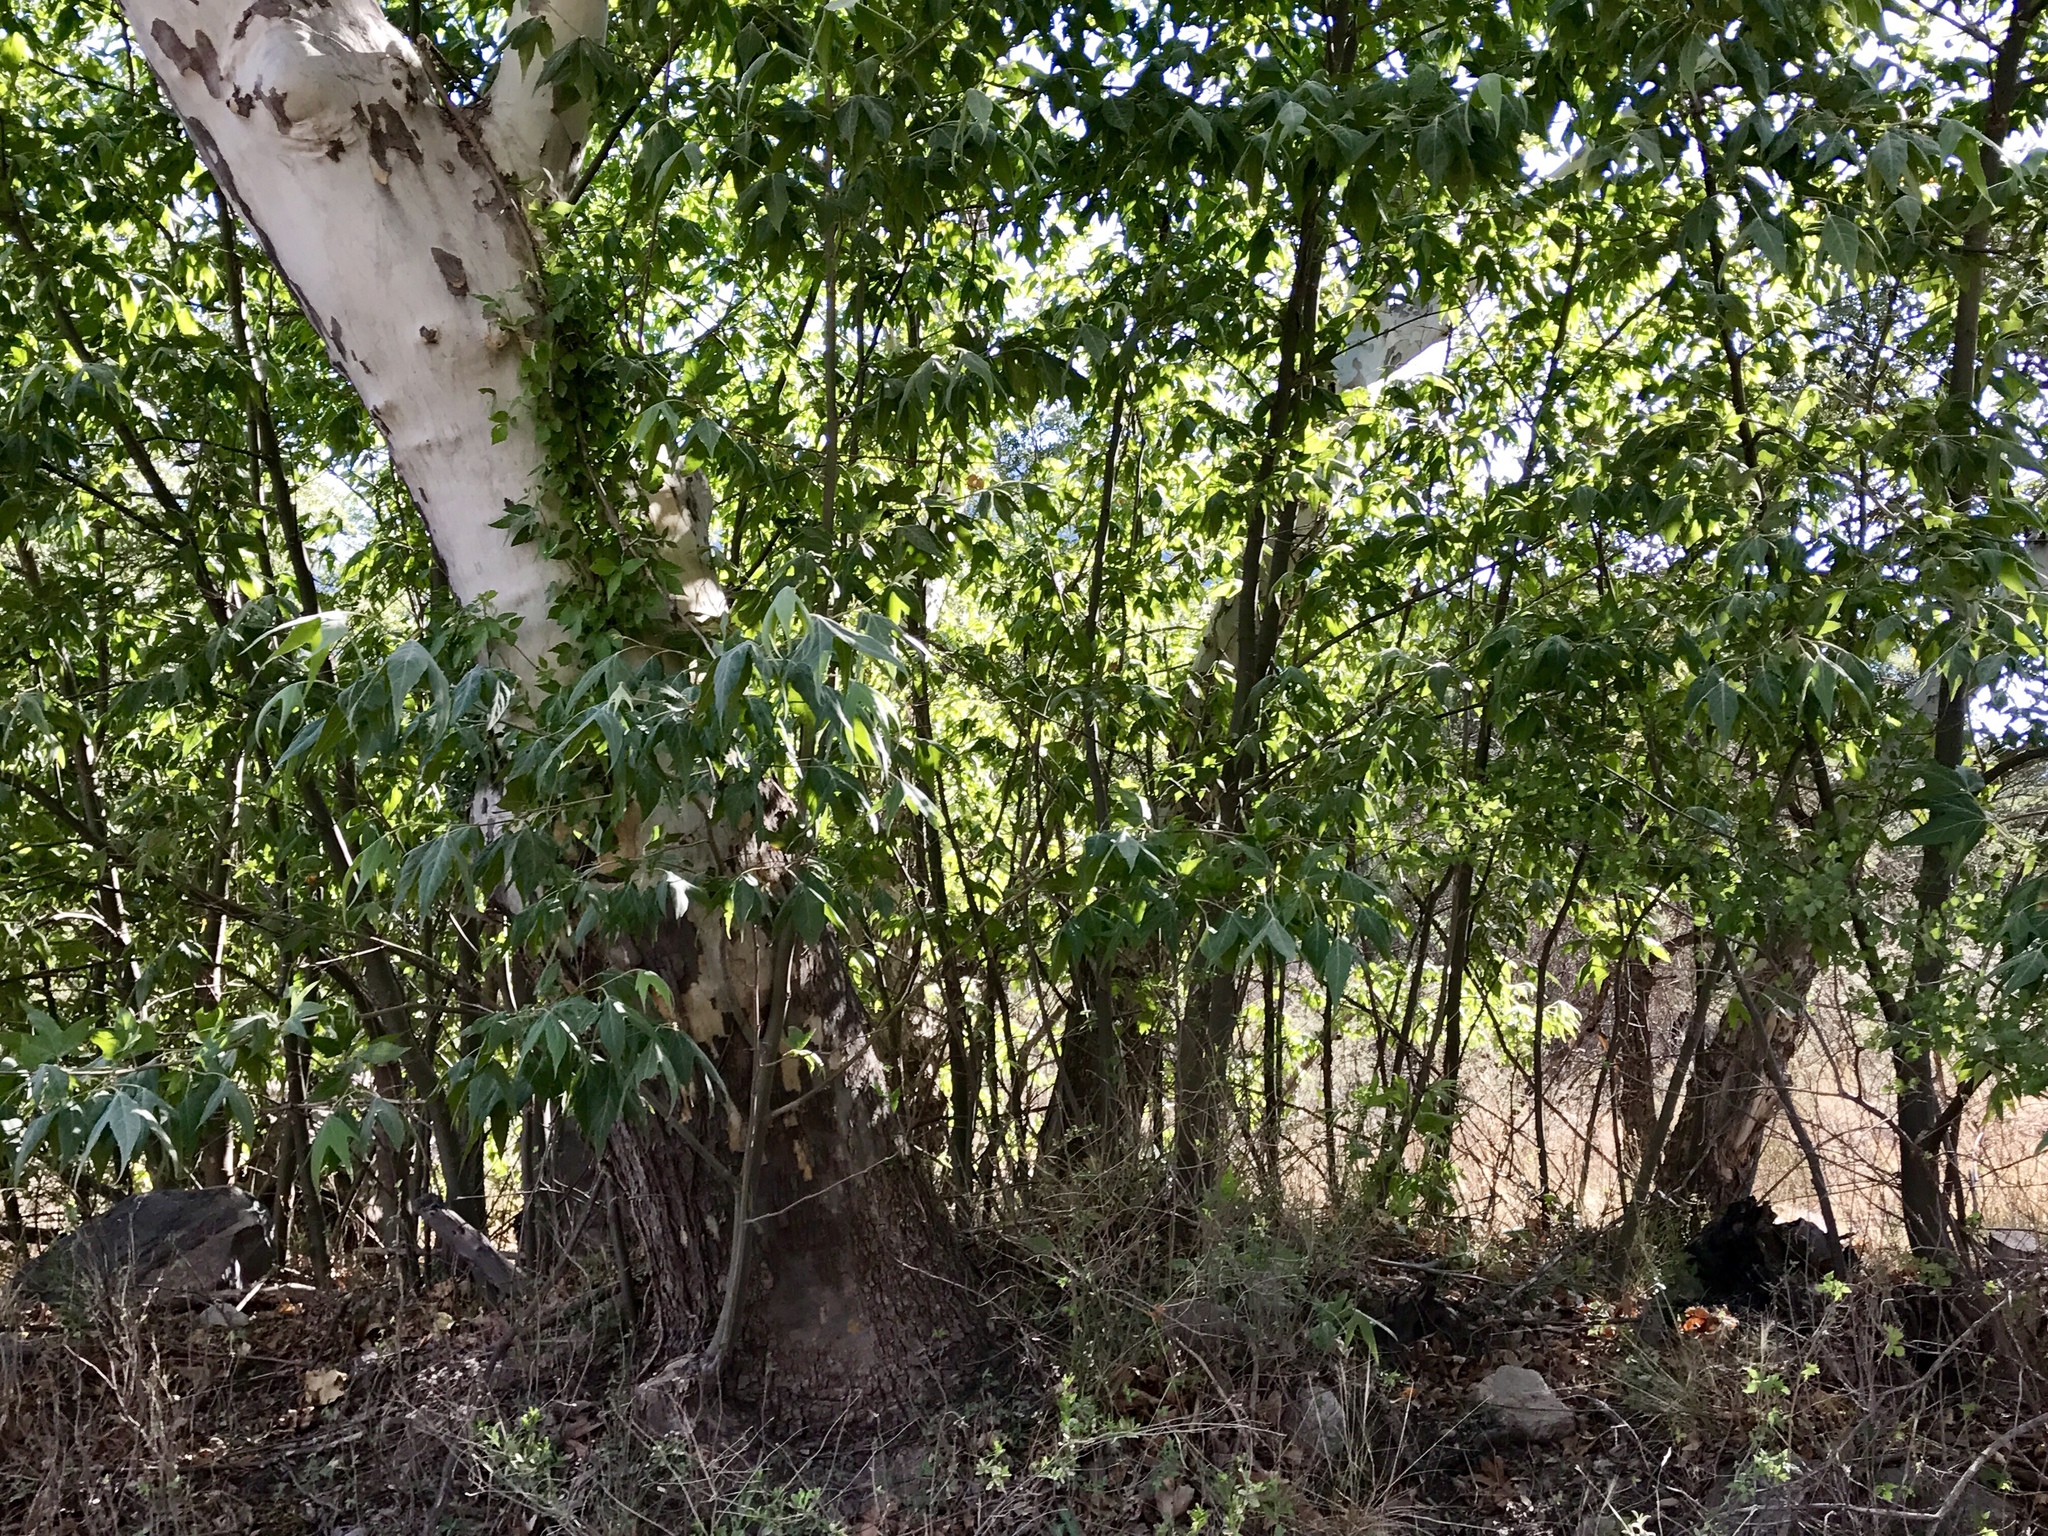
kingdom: Plantae
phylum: Tracheophyta
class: Magnoliopsida
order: Proteales
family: Platanaceae
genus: Platanus
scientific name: Platanus wrightii
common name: Arizona sycamore
